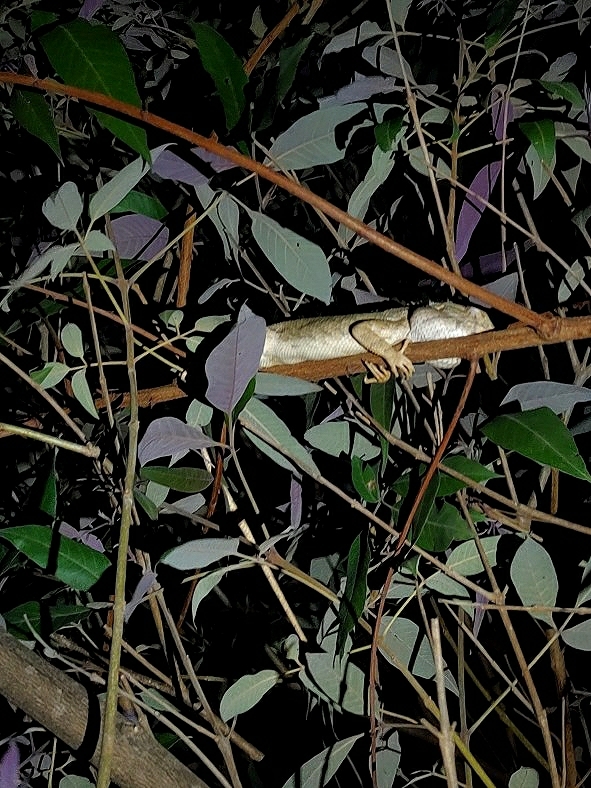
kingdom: Animalia
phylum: Chordata
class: Squamata
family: Agamidae
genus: Calotes
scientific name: Calotes versicolor
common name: Oriental garden lizard
